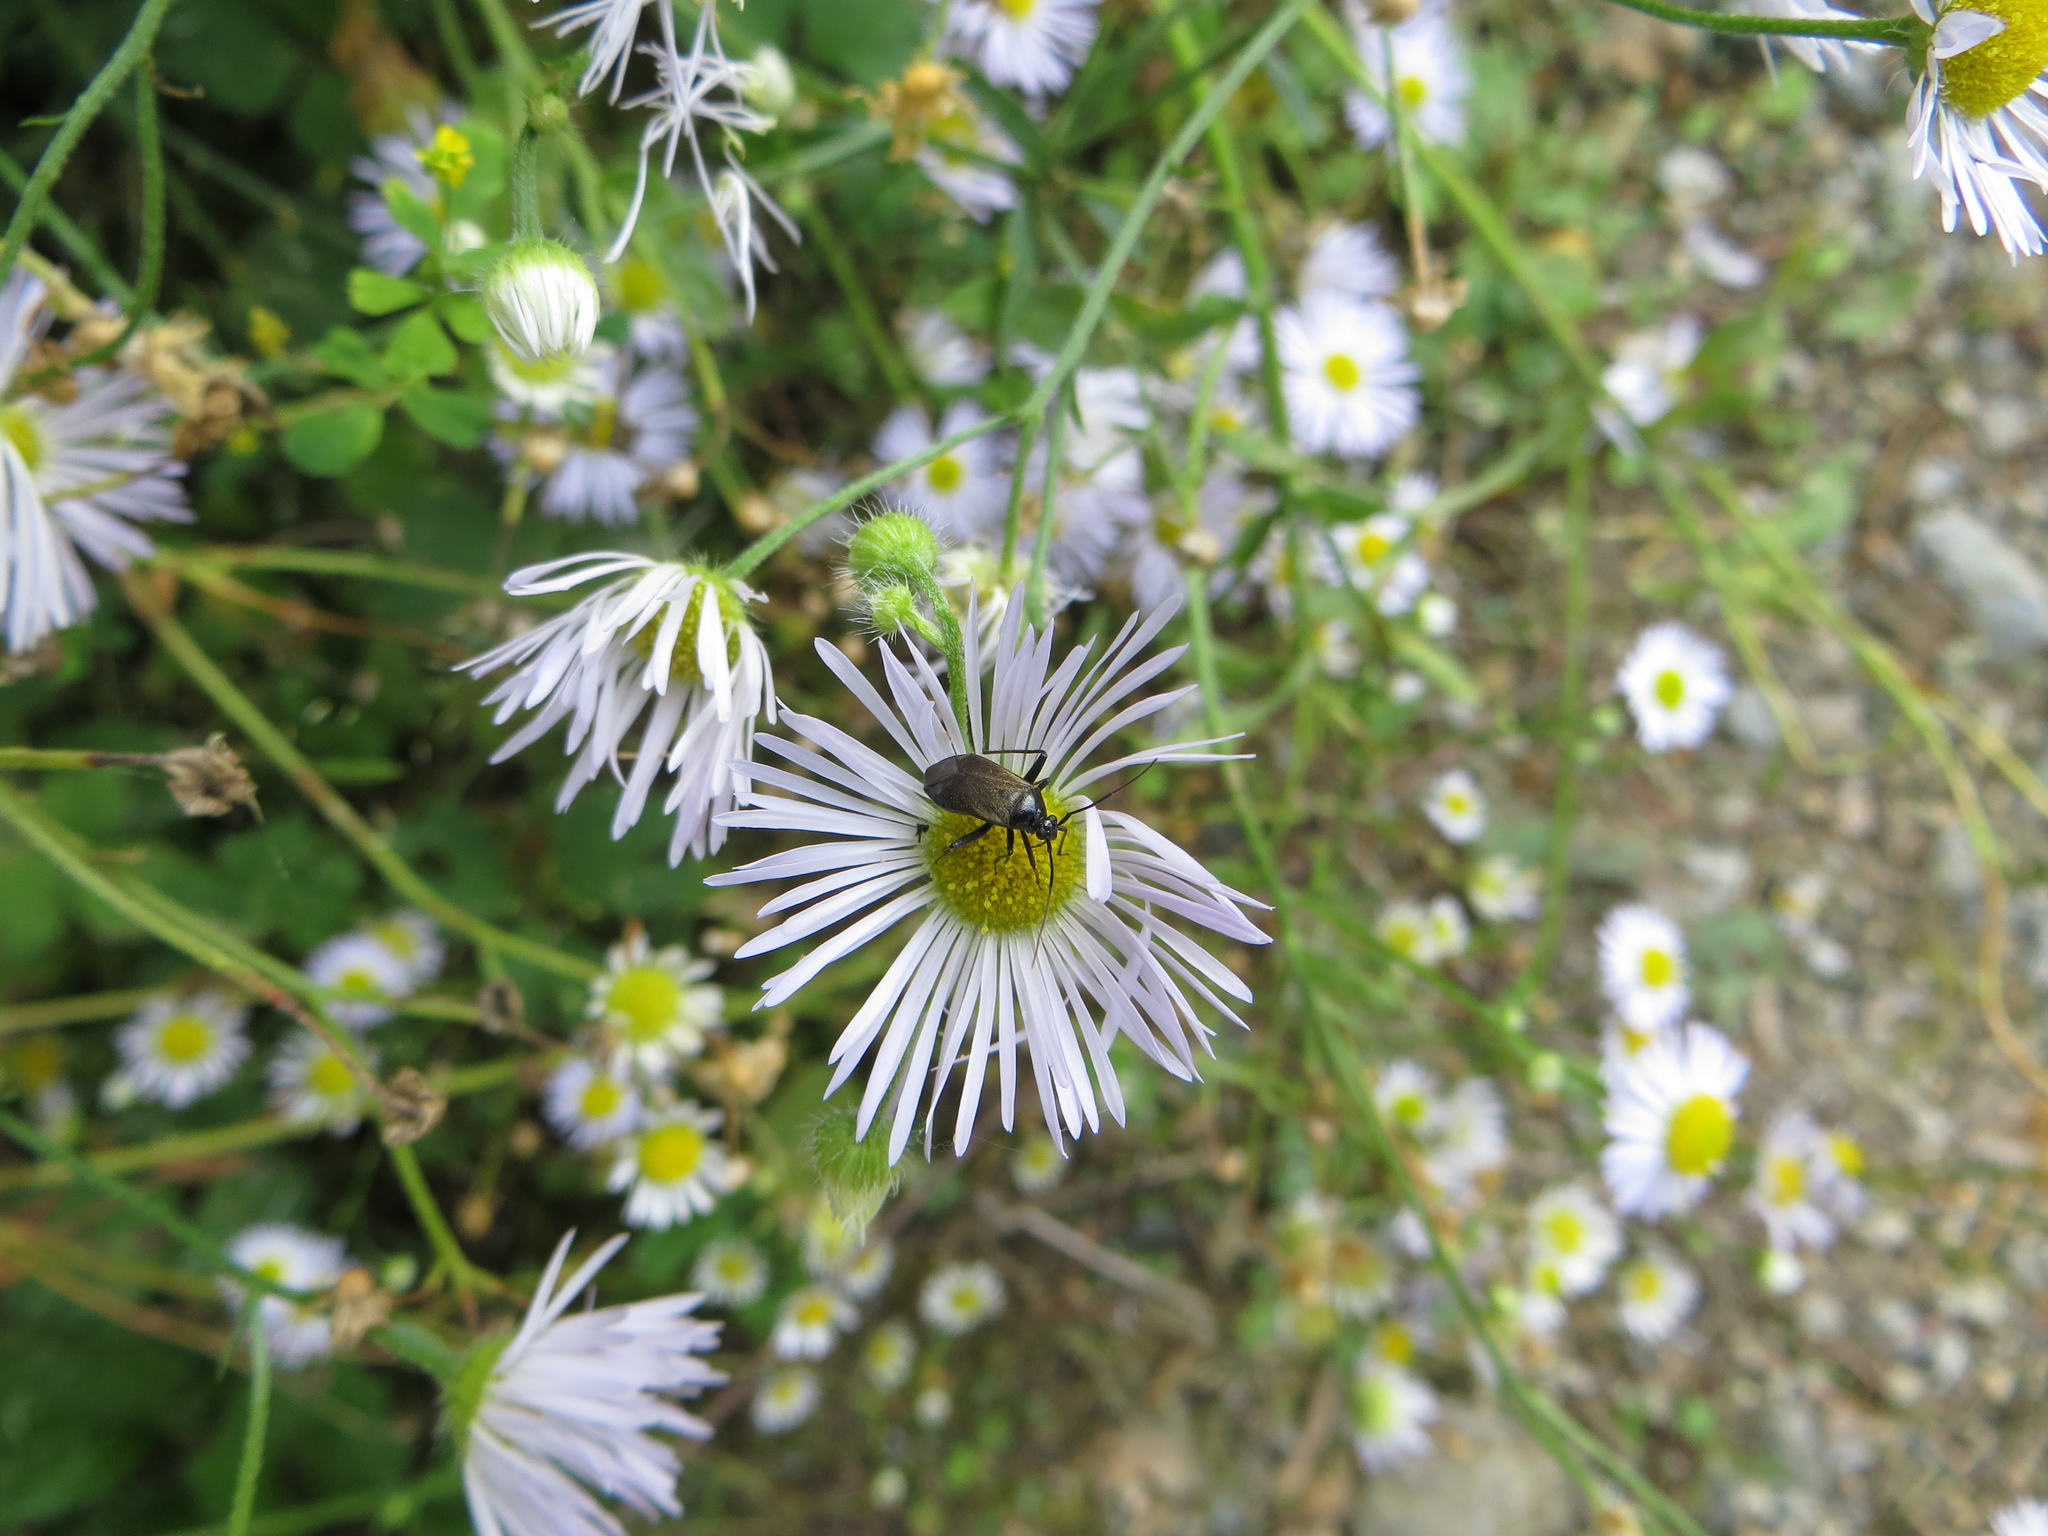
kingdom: Animalia
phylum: Arthropoda
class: Insecta
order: Hemiptera
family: Miridae
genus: Adelphocoris
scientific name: Adelphocoris seticornis
